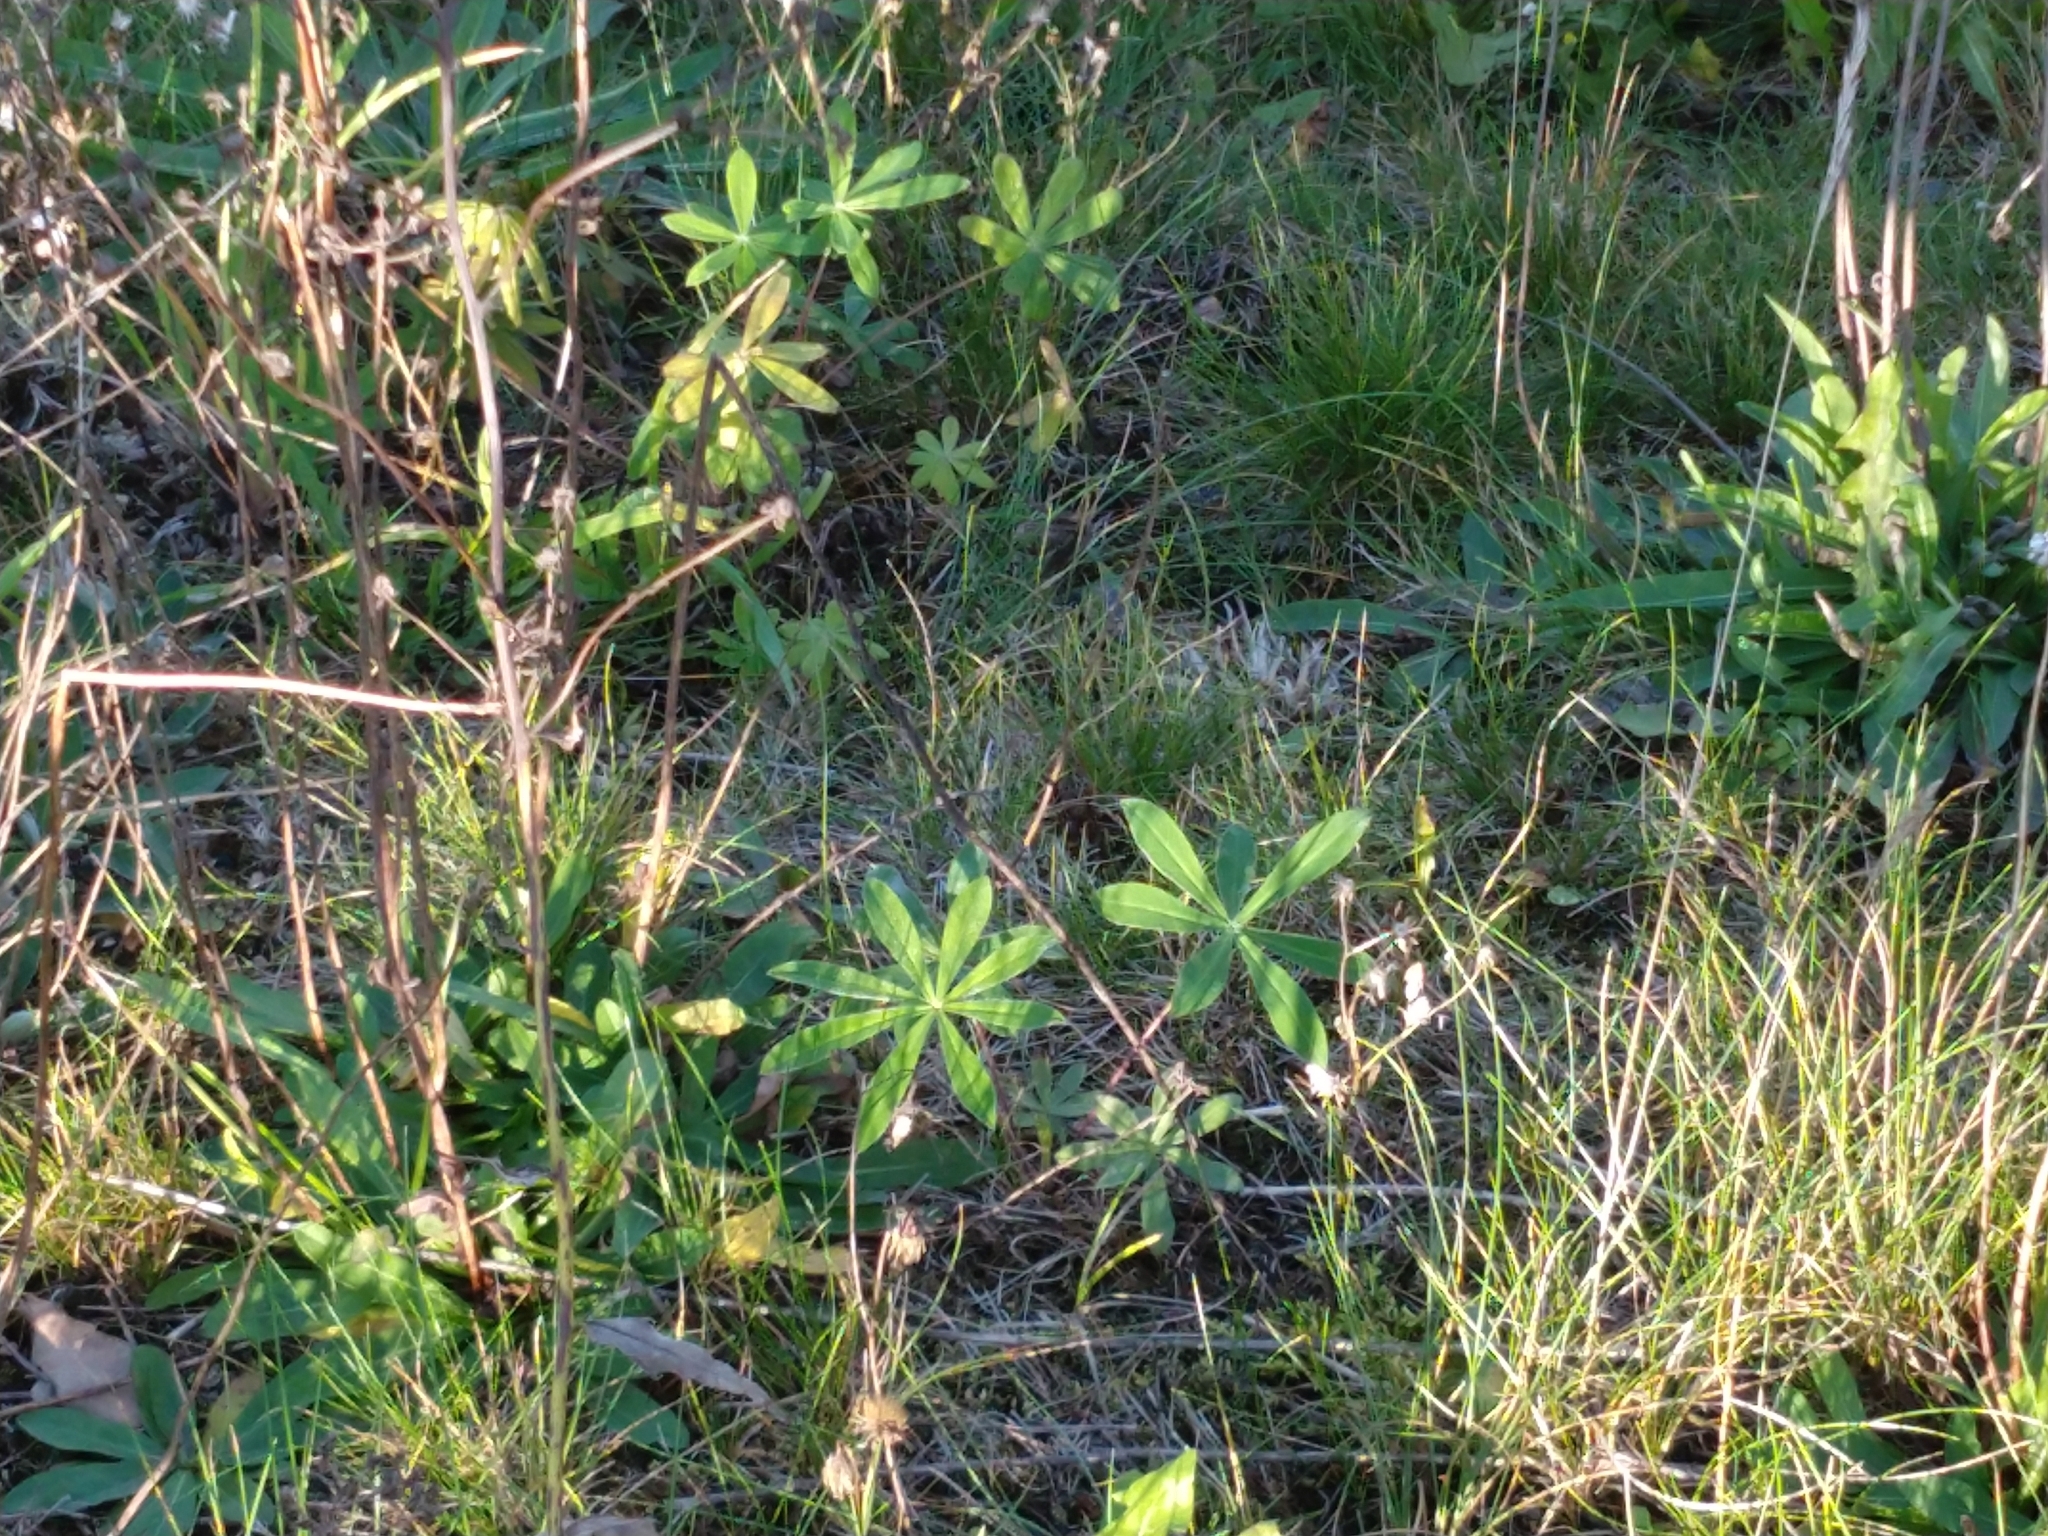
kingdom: Plantae
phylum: Tracheophyta
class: Magnoliopsida
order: Fabales
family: Fabaceae
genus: Lupinus
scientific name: Lupinus polyphyllus
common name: Garden lupin
